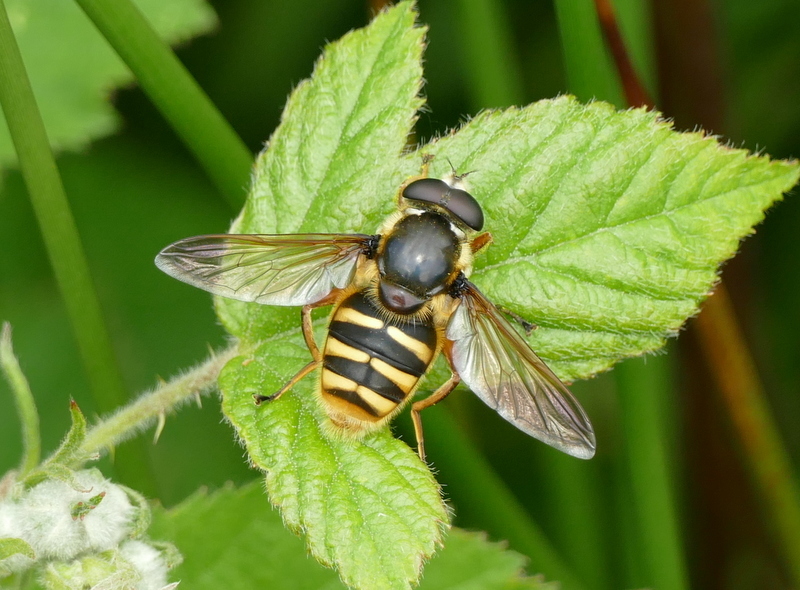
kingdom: Animalia
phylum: Arthropoda
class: Insecta
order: Diptera
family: Syrphidae
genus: Sericomyia
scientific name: Sericomyia silentis
